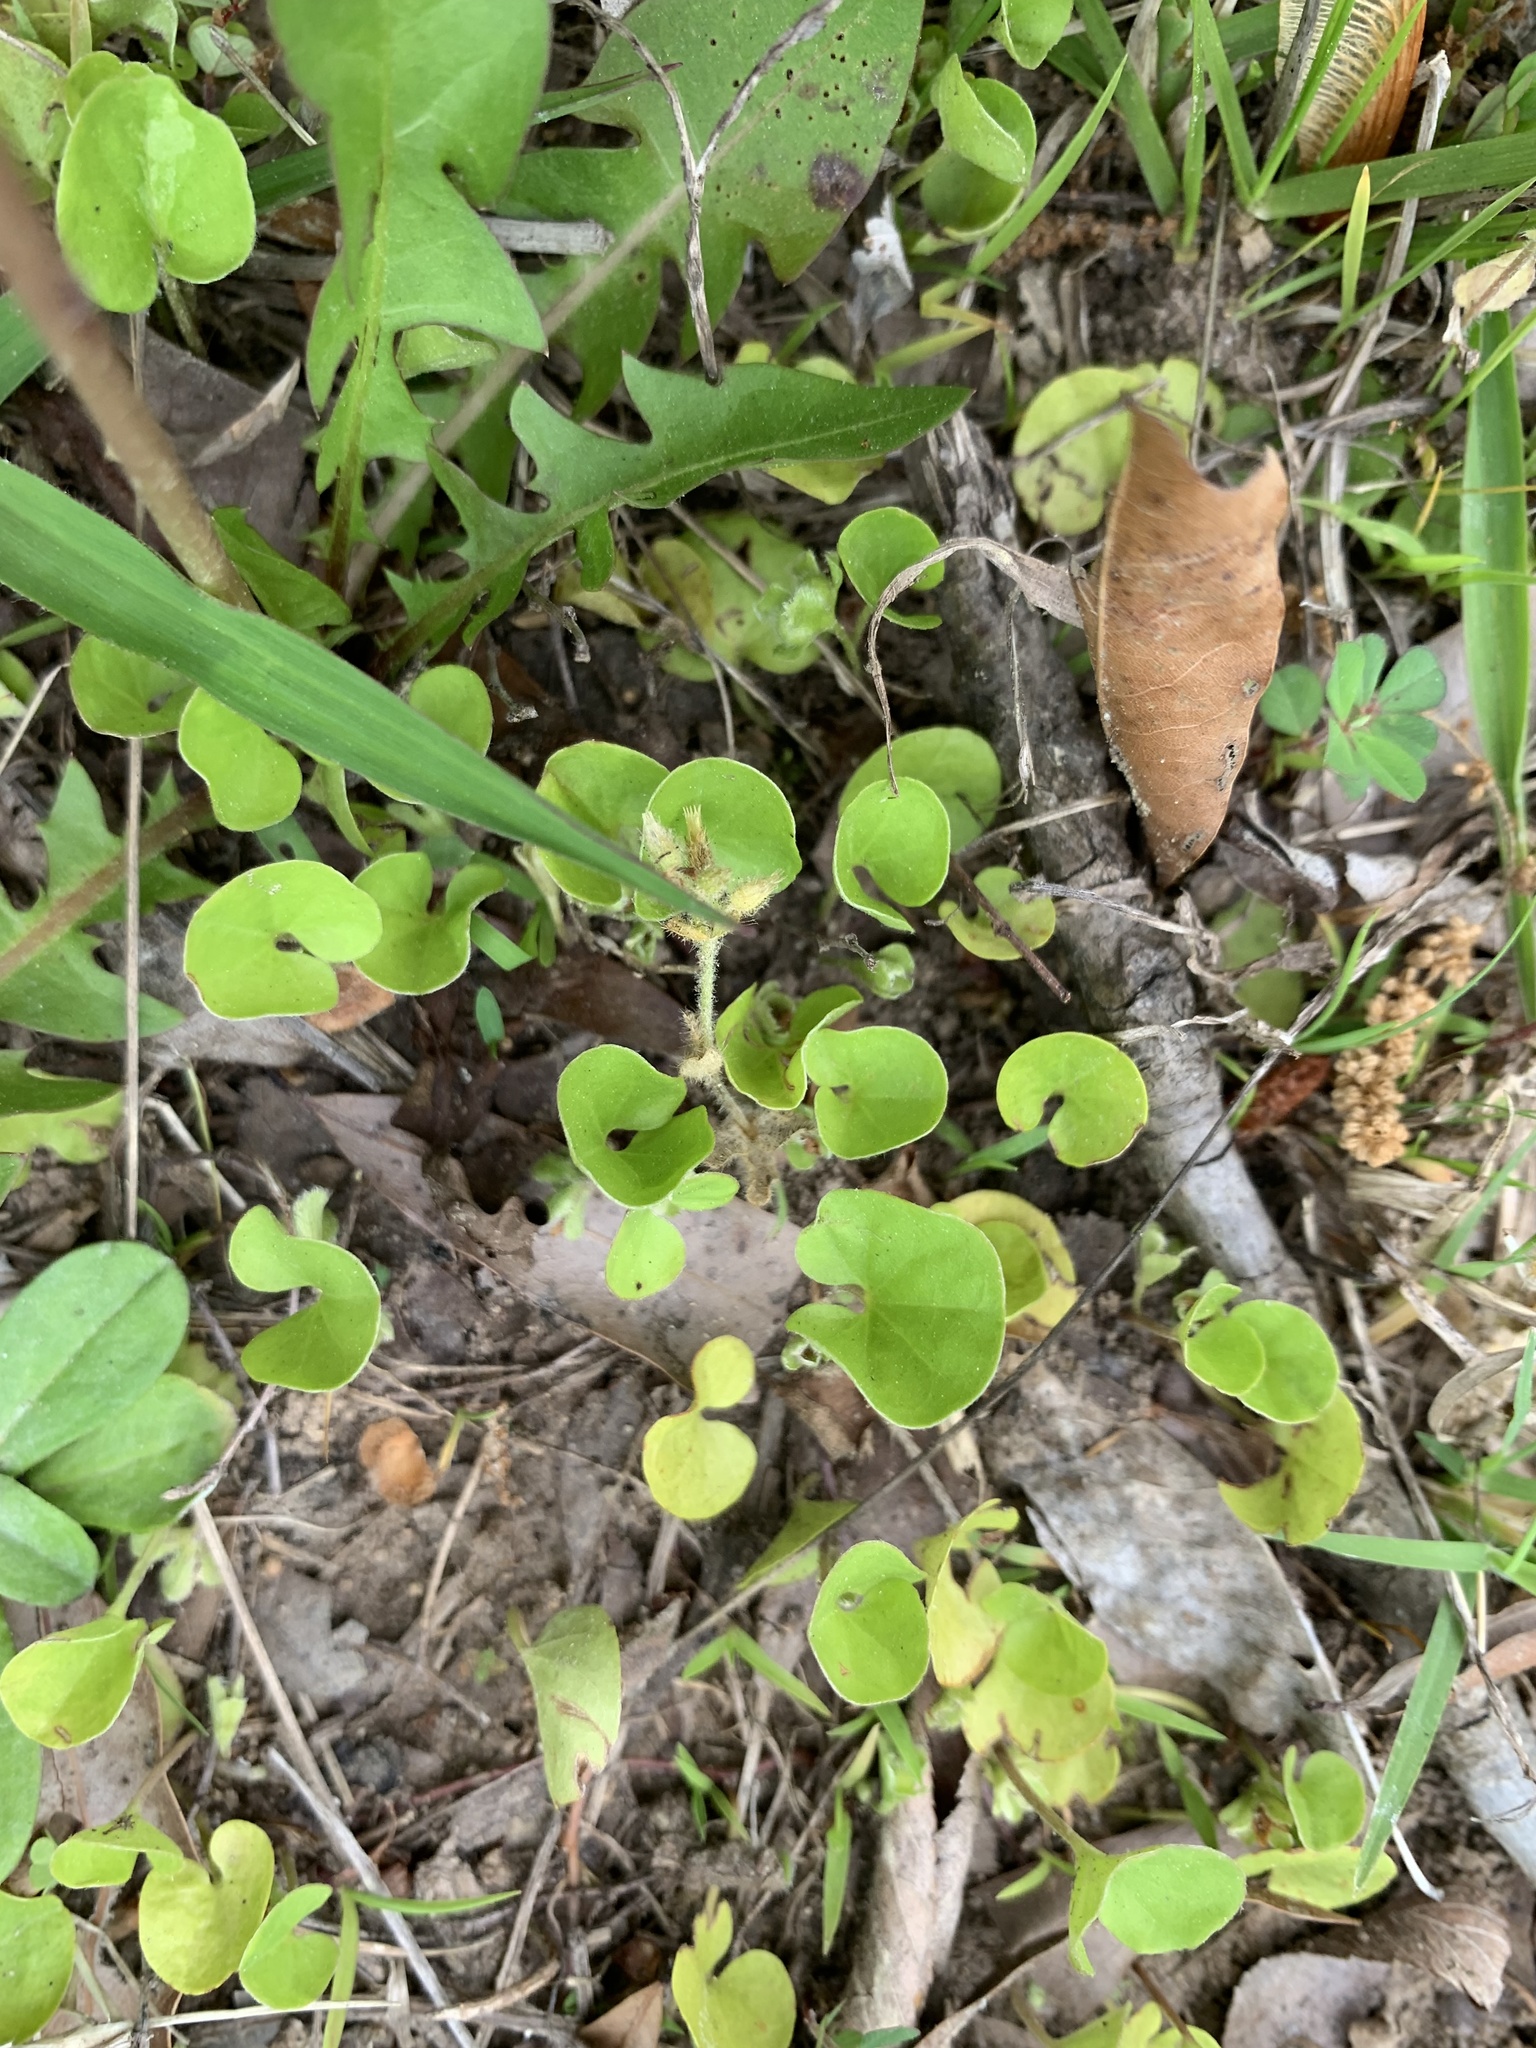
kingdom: Plantae
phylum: Tracheophyta
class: Magnoliopsida
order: Solanales
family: Convolvulaceae
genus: Dichondra
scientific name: Dichondra carolinensis
